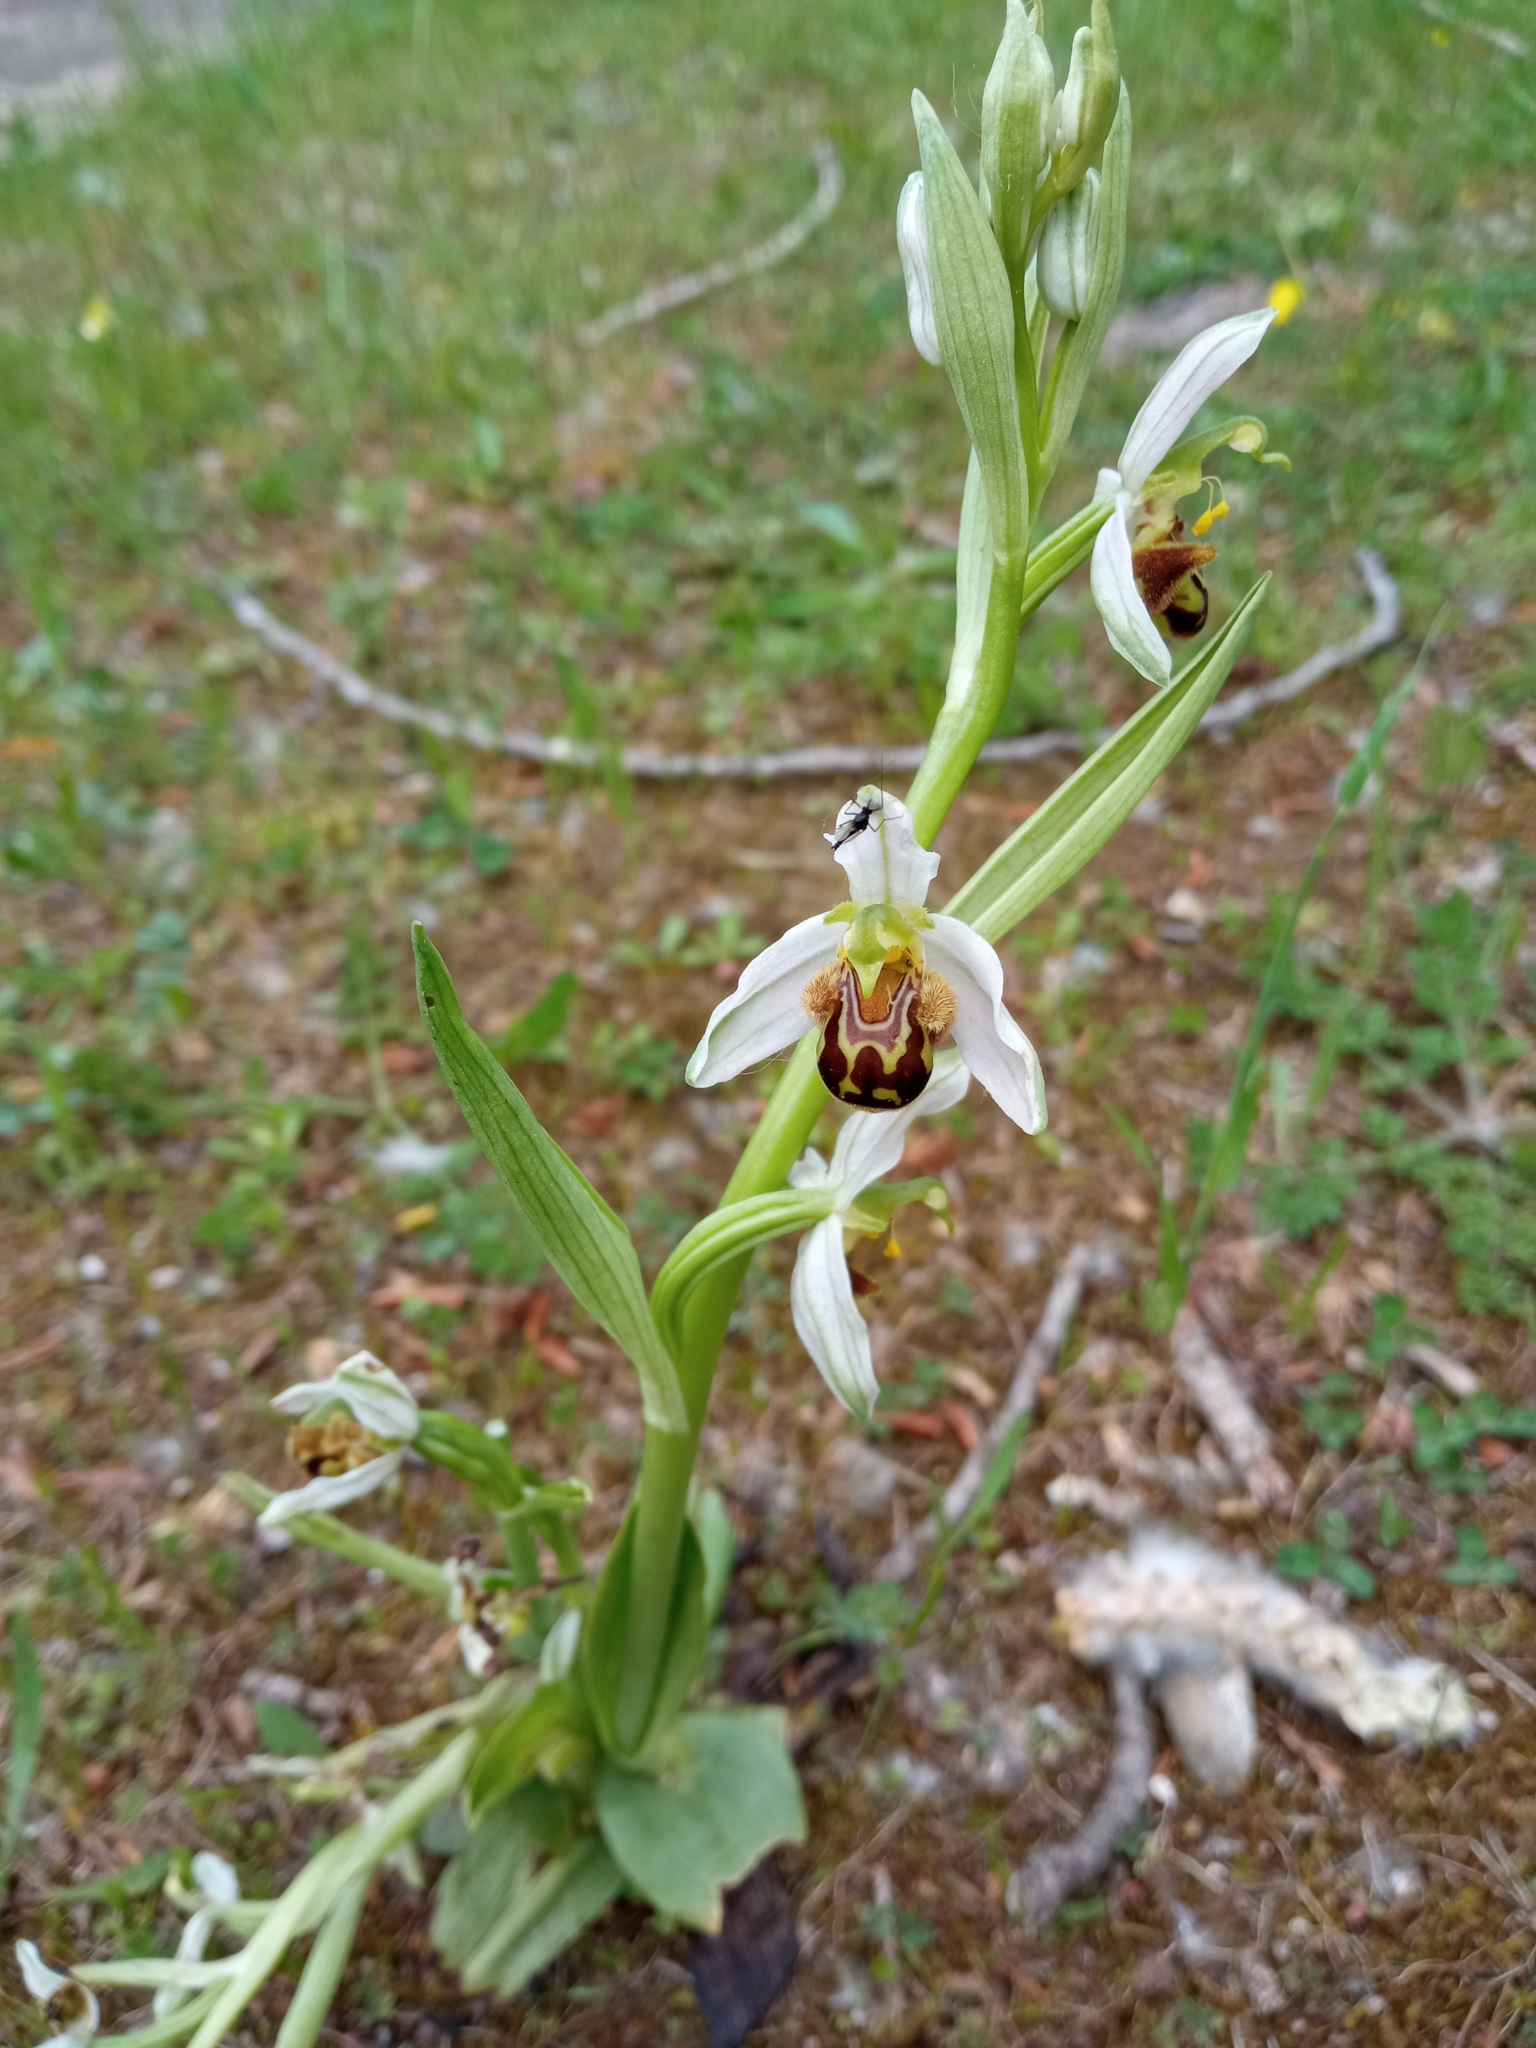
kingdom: Plantae
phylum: Tracheophyta
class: Liliopsida
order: Asparagales
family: Orchidaceae
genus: Ophrys
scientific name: Ophrys apifera
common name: Bee orchid
